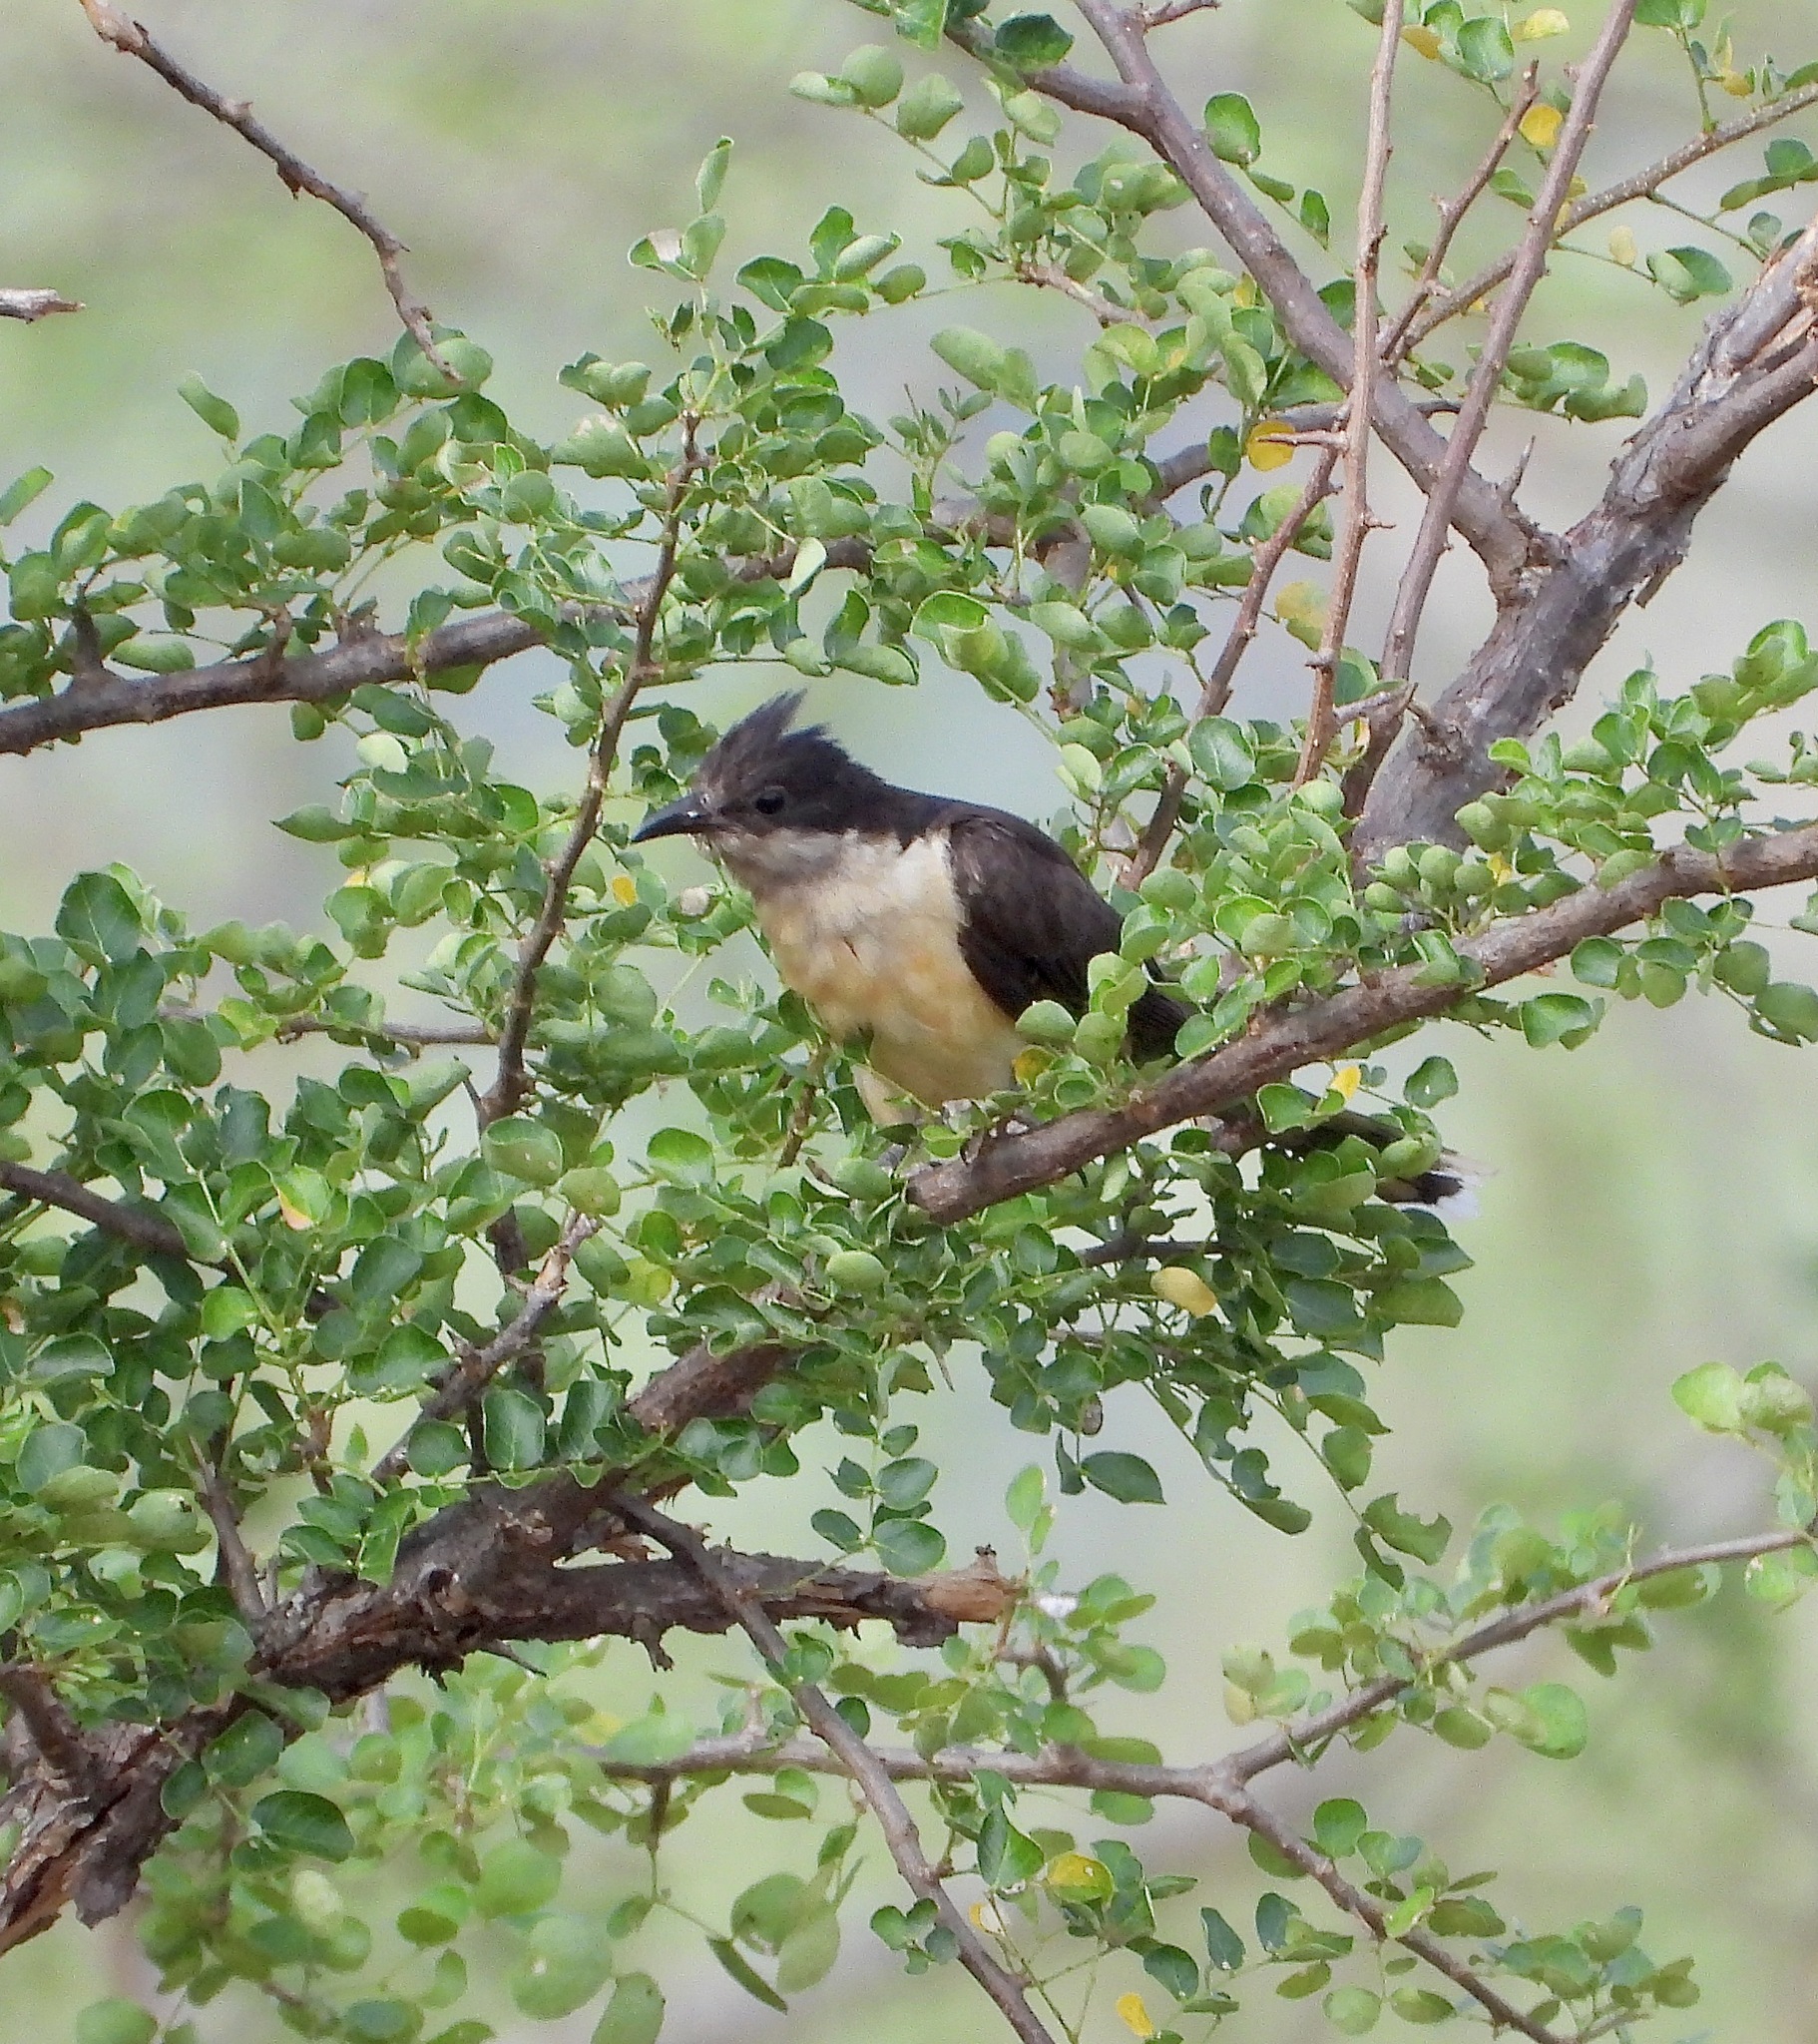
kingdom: Animalia
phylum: Chordata
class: Aves
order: Cuculiformes
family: Cuculidae
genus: Clamator
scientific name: Clamator jacobinus
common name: Jacobin cuckoo
